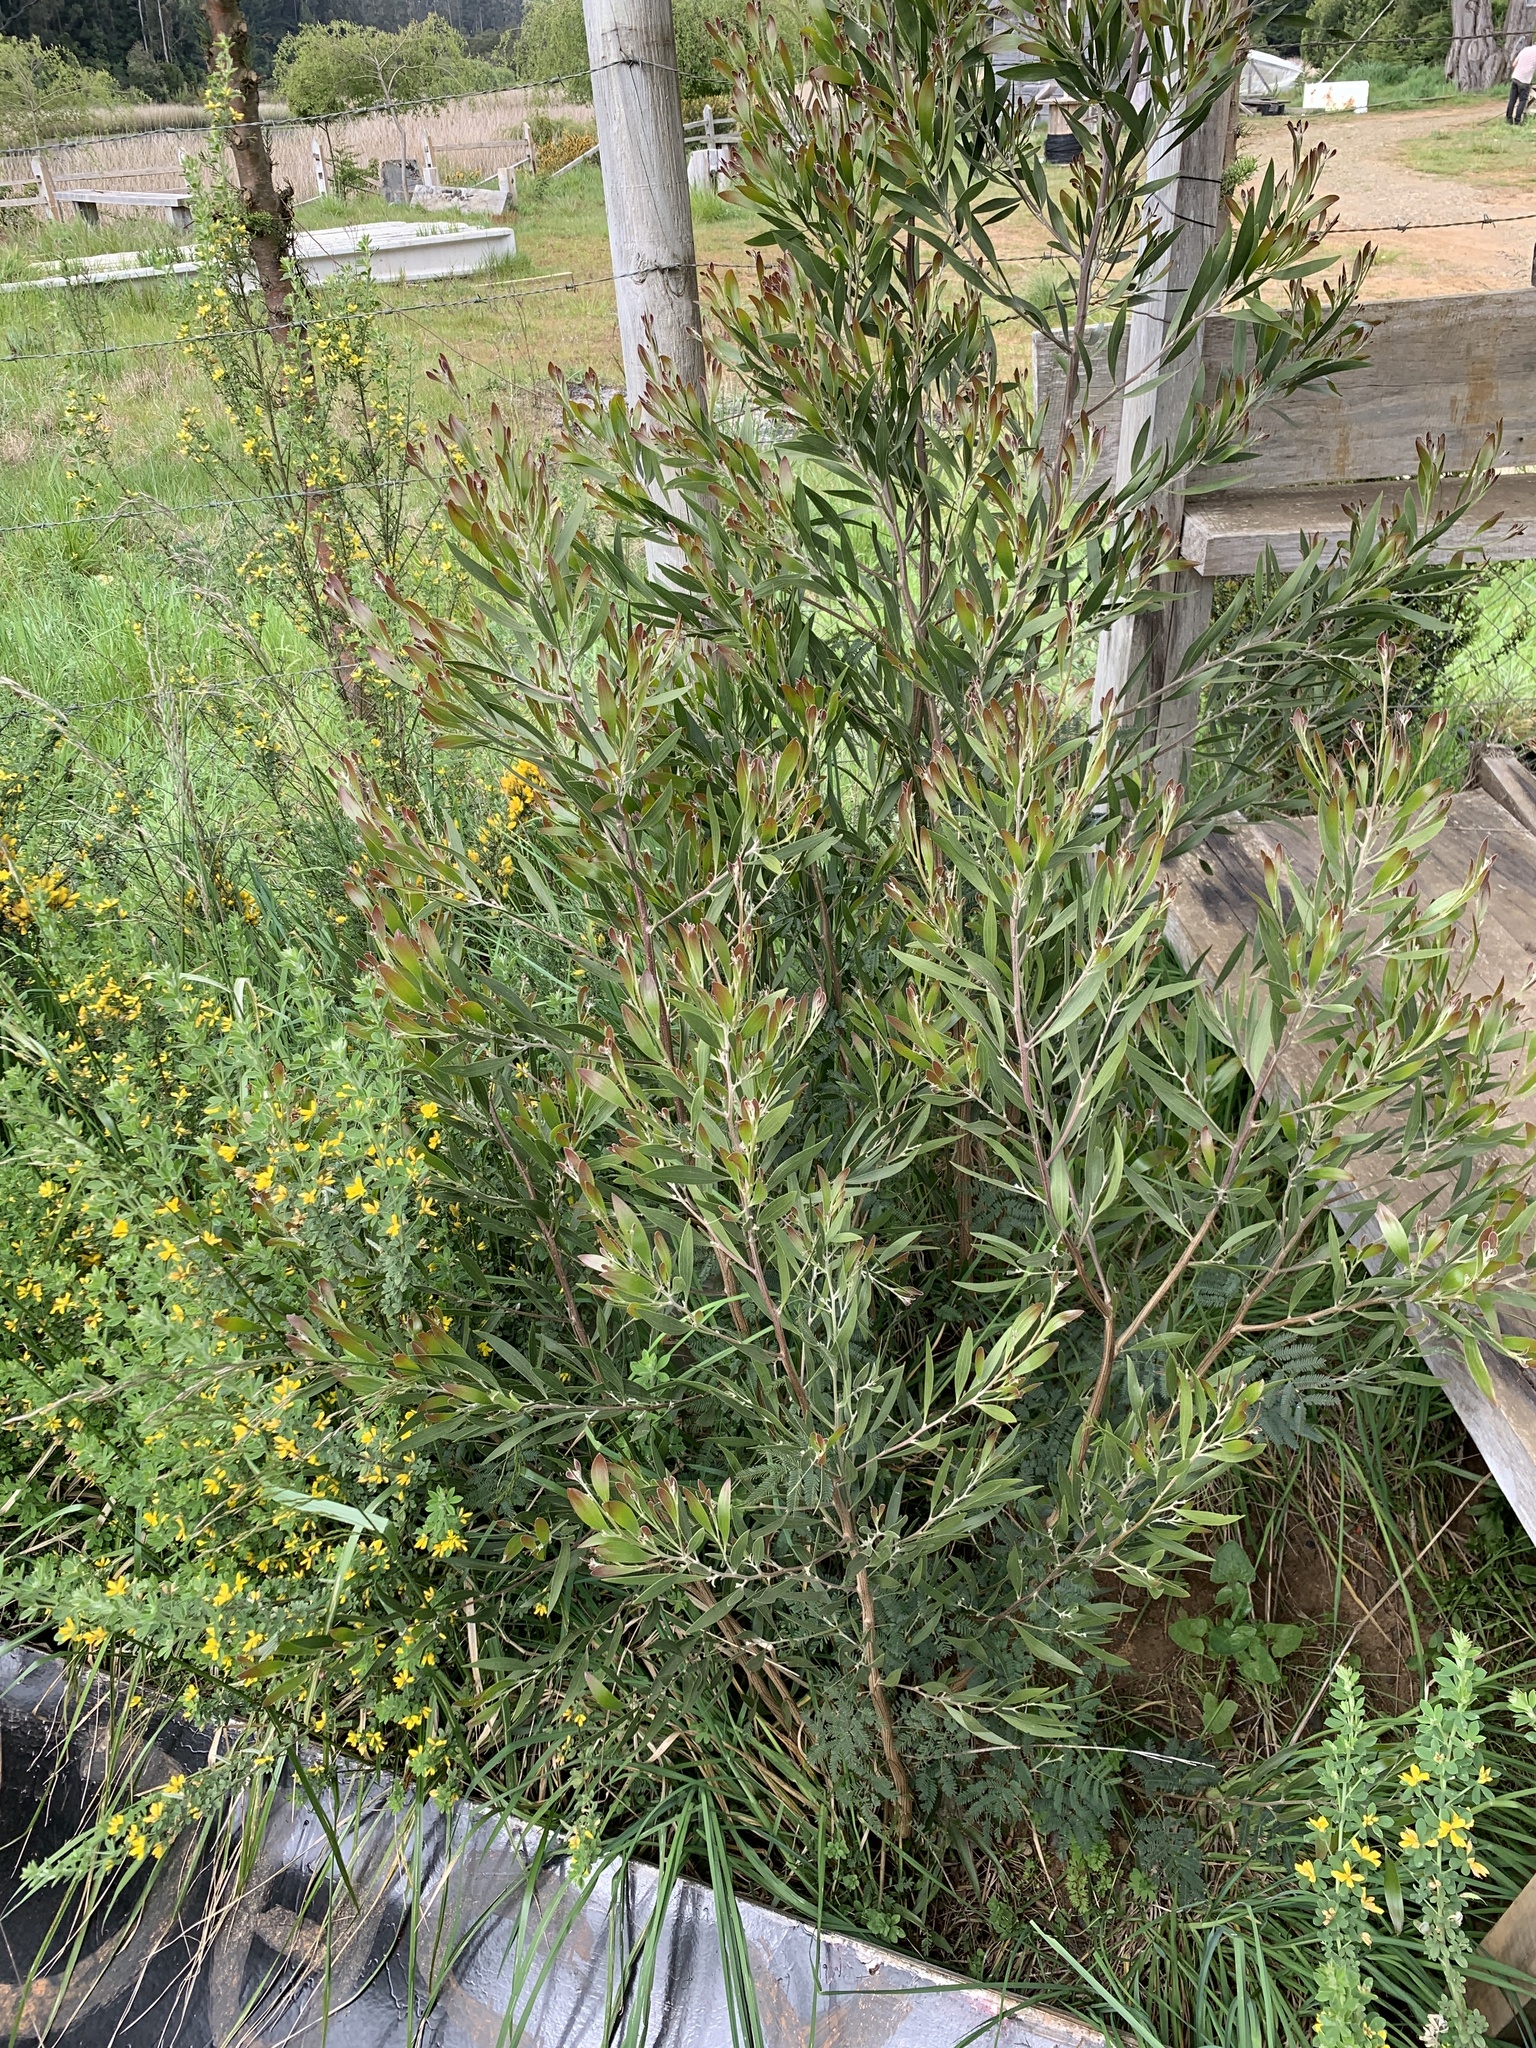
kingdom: Plantae
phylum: Tracheophyta
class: Magnoliopsida
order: Fabales
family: Fabaceae
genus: Acacia
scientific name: Acacia melanoxylon
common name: Blackwood
